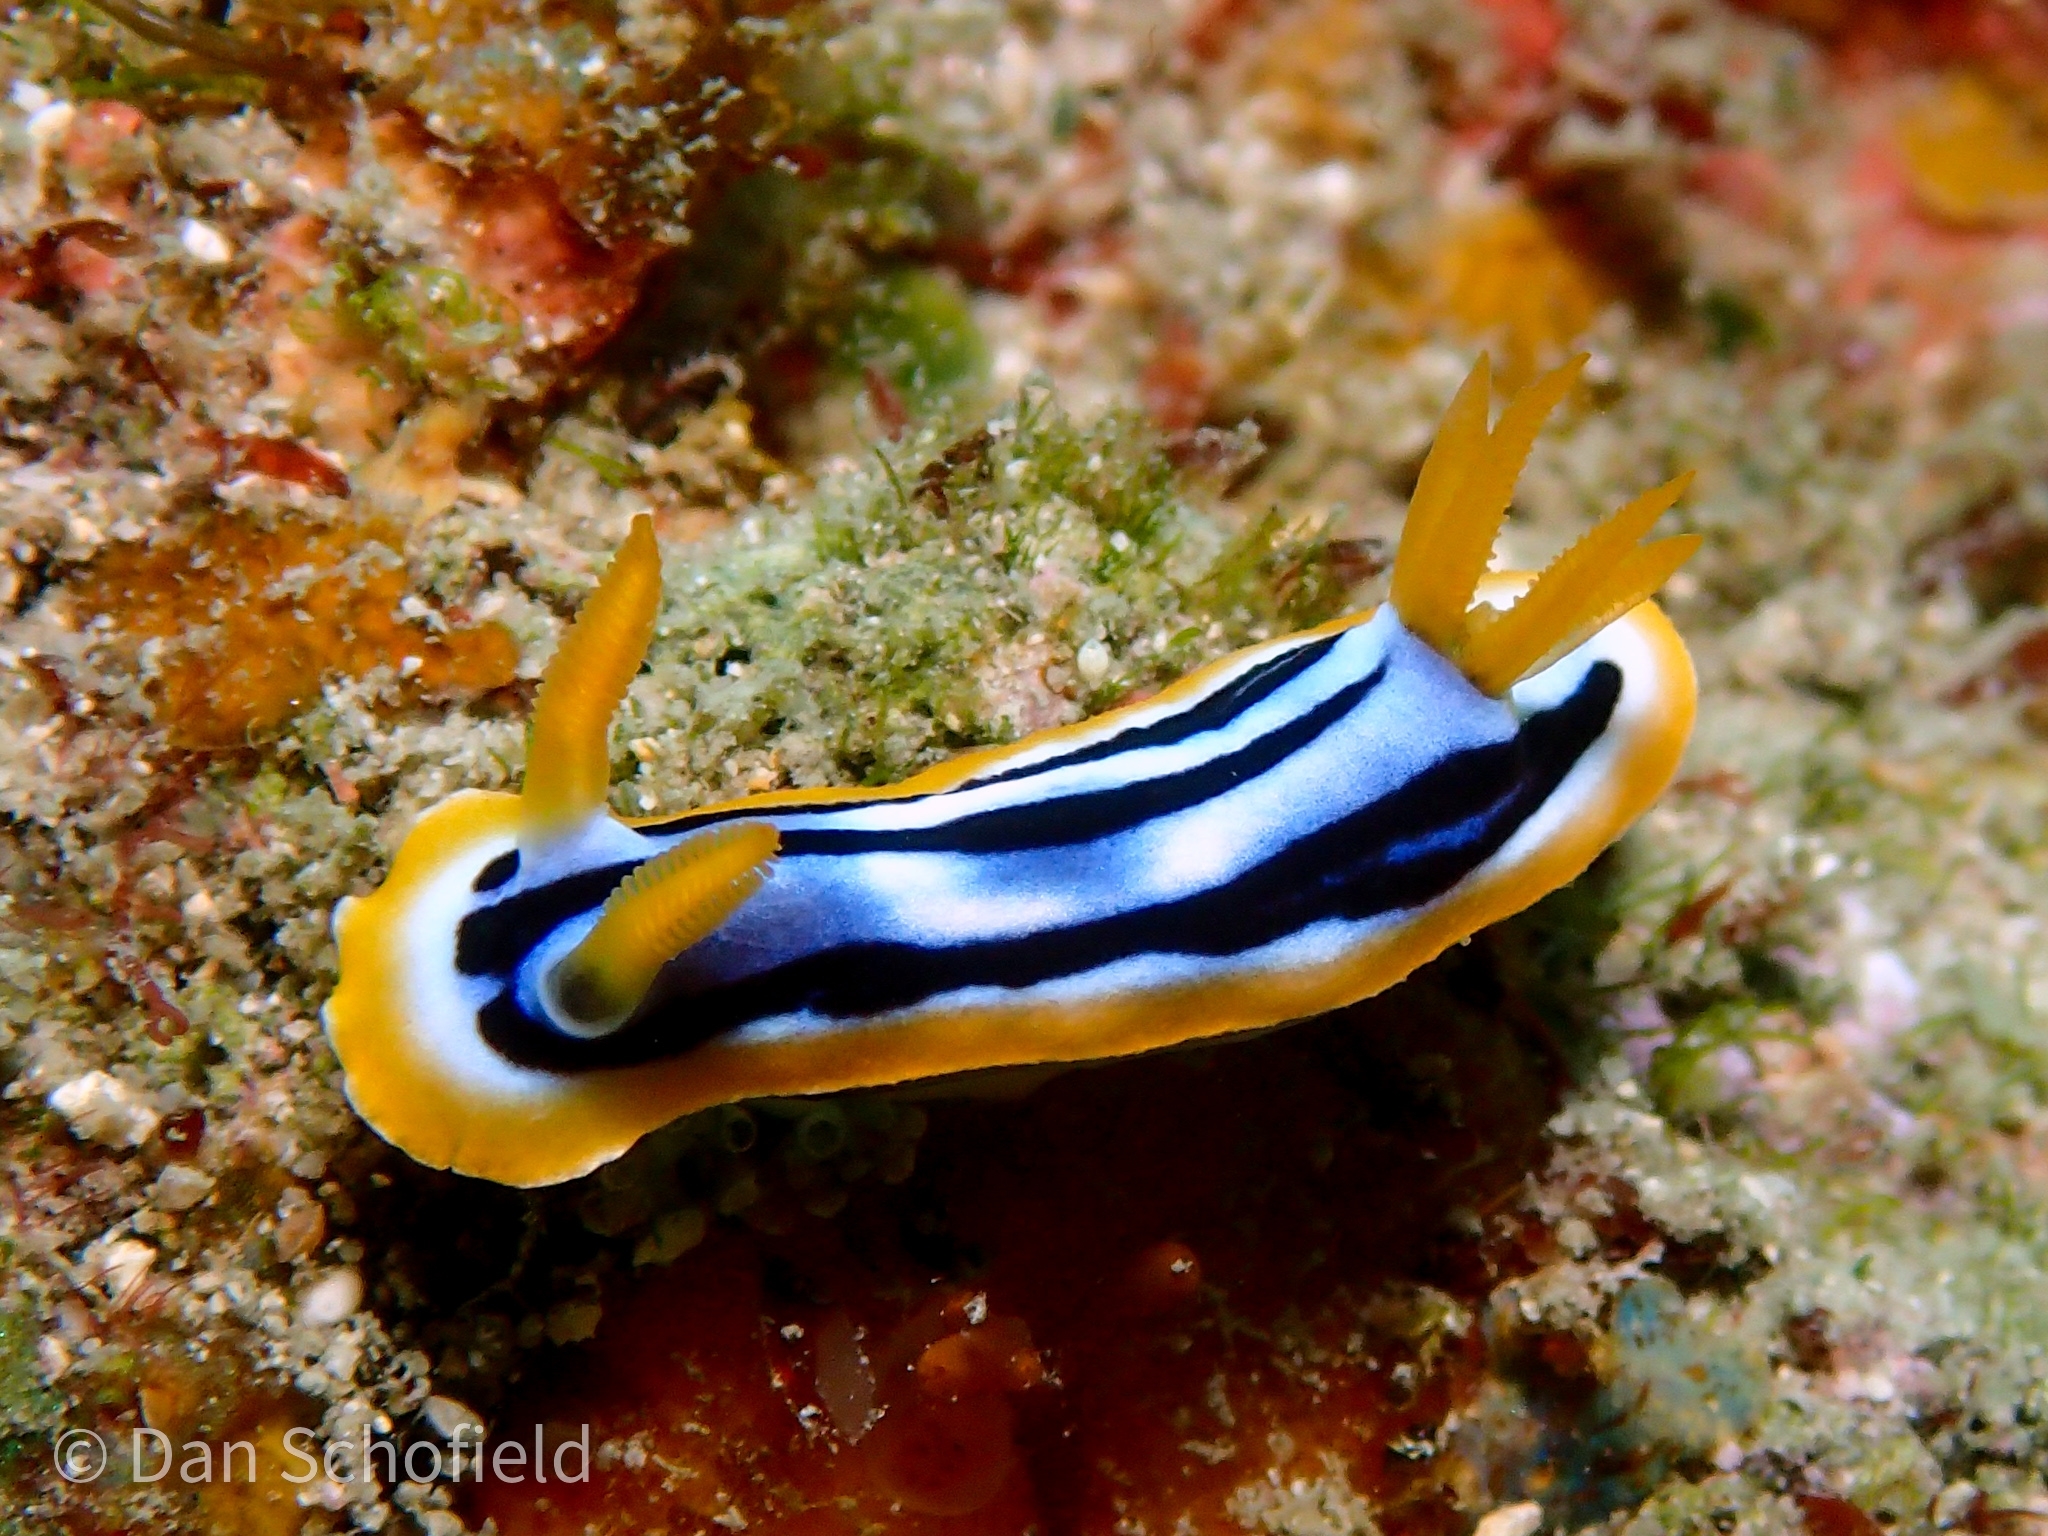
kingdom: Animalia
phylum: Mollusca
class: Gastropoda
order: Nudibranchia
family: Chromodorididae
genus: Chromodoris
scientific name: Chromodoris strigata
